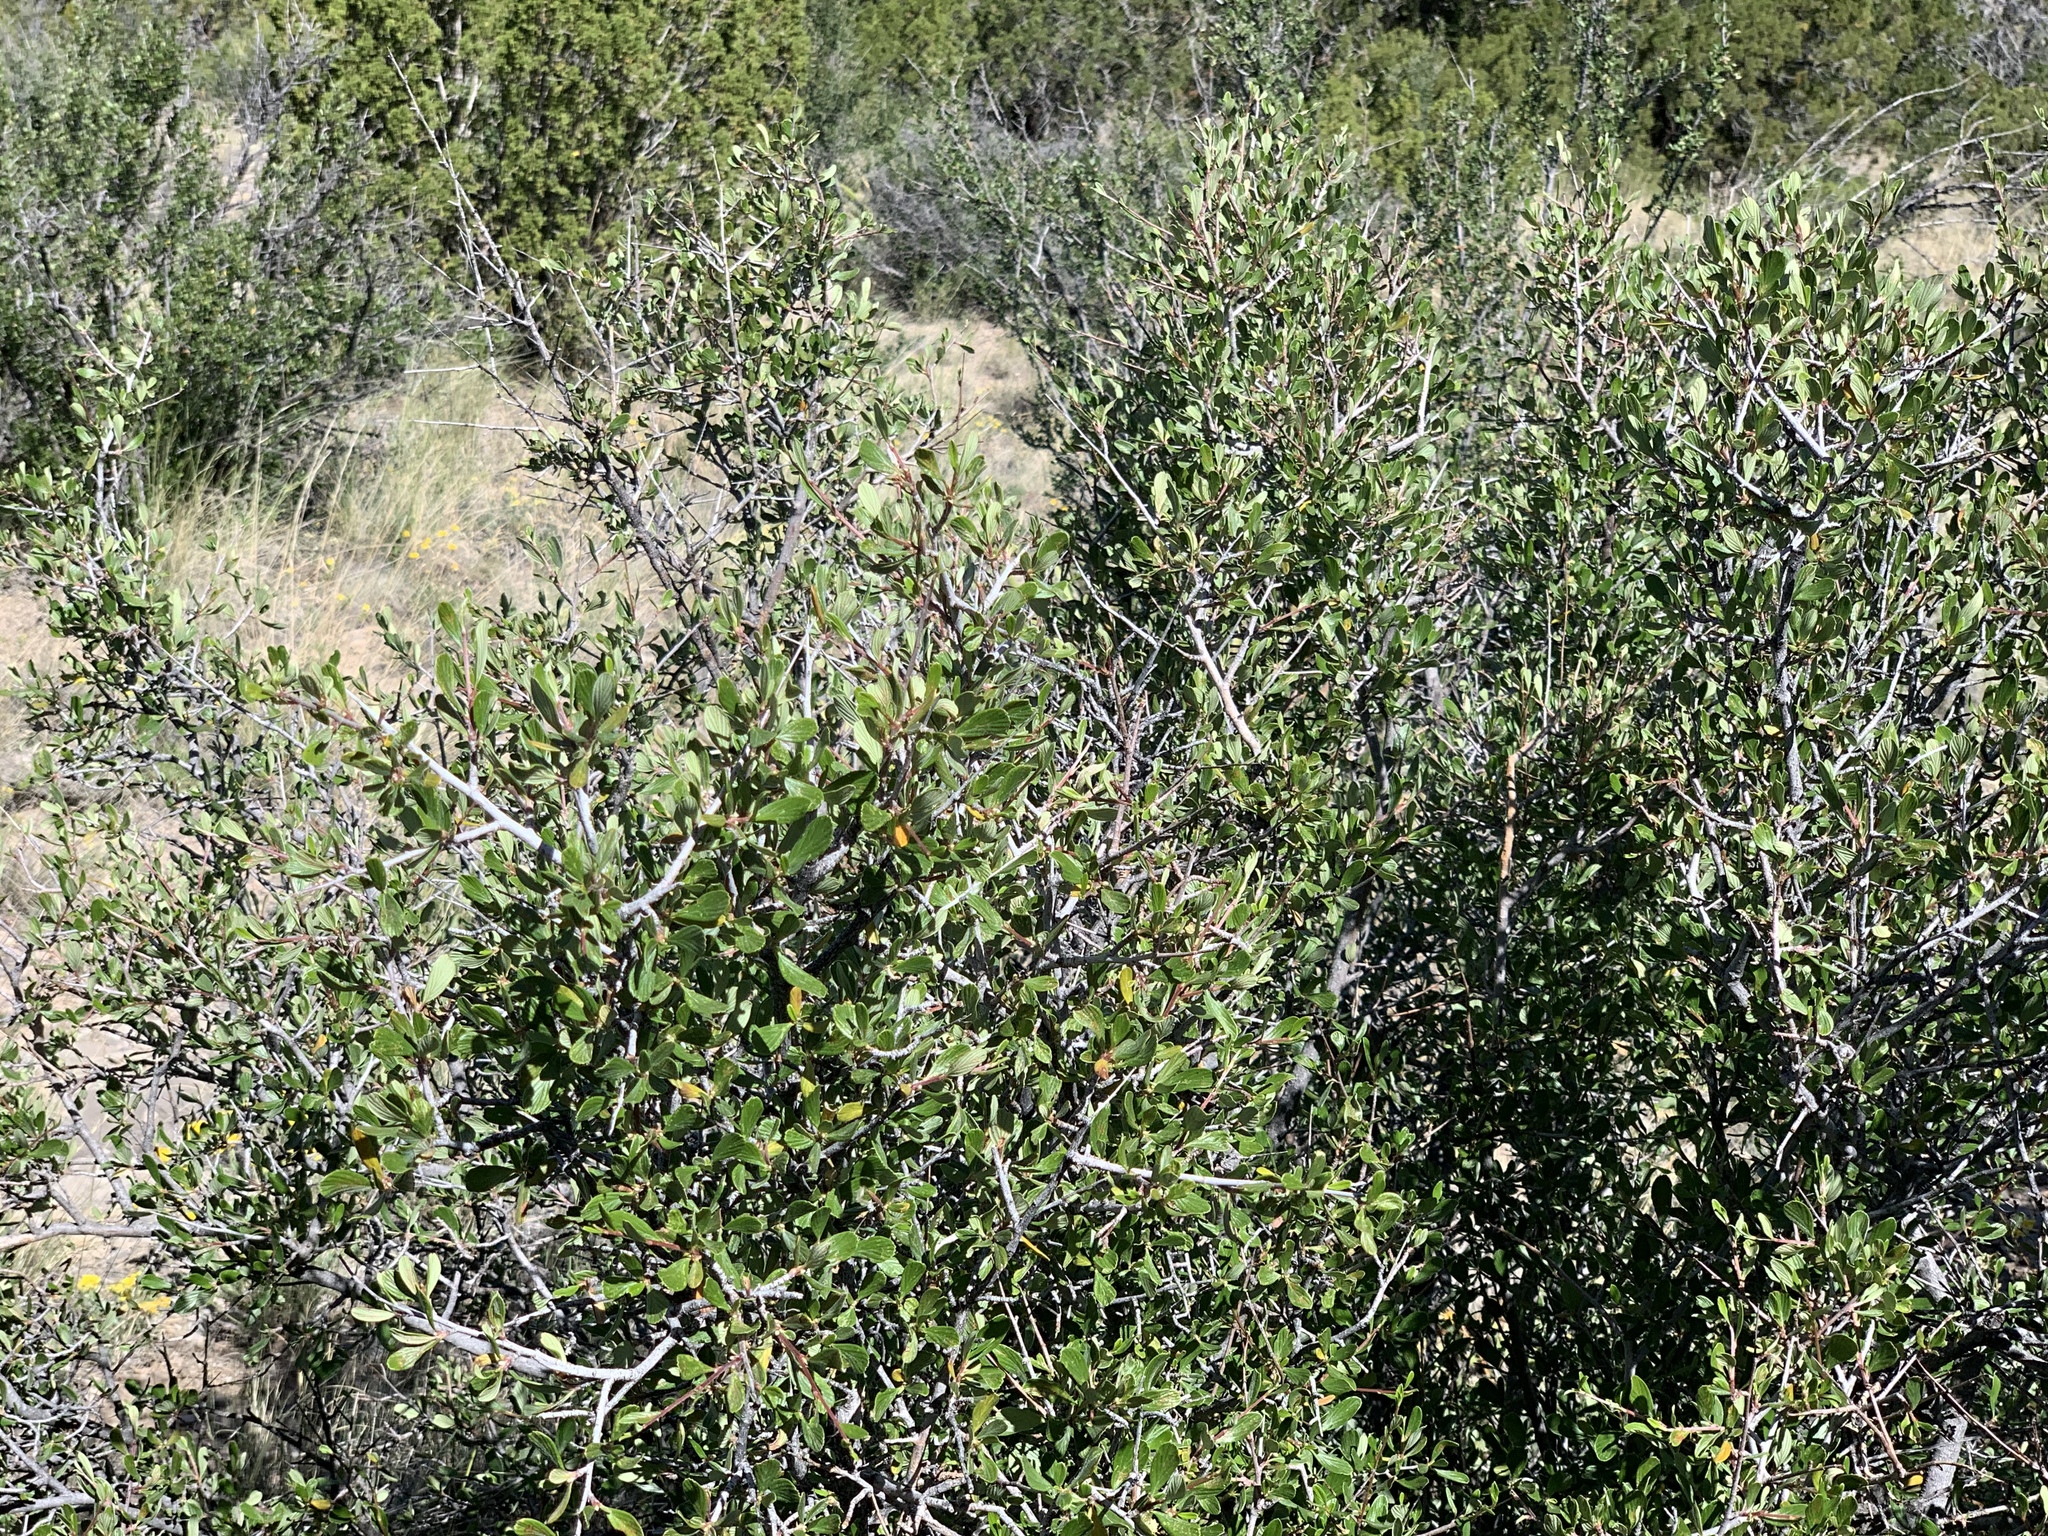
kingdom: Plantae
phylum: Tracheophyta
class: Magnoliopsida
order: Rosales
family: Rosaceae
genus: Cercocarpus
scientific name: Cercocarpus breviflorus
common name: Wright's mountain-mahogany
